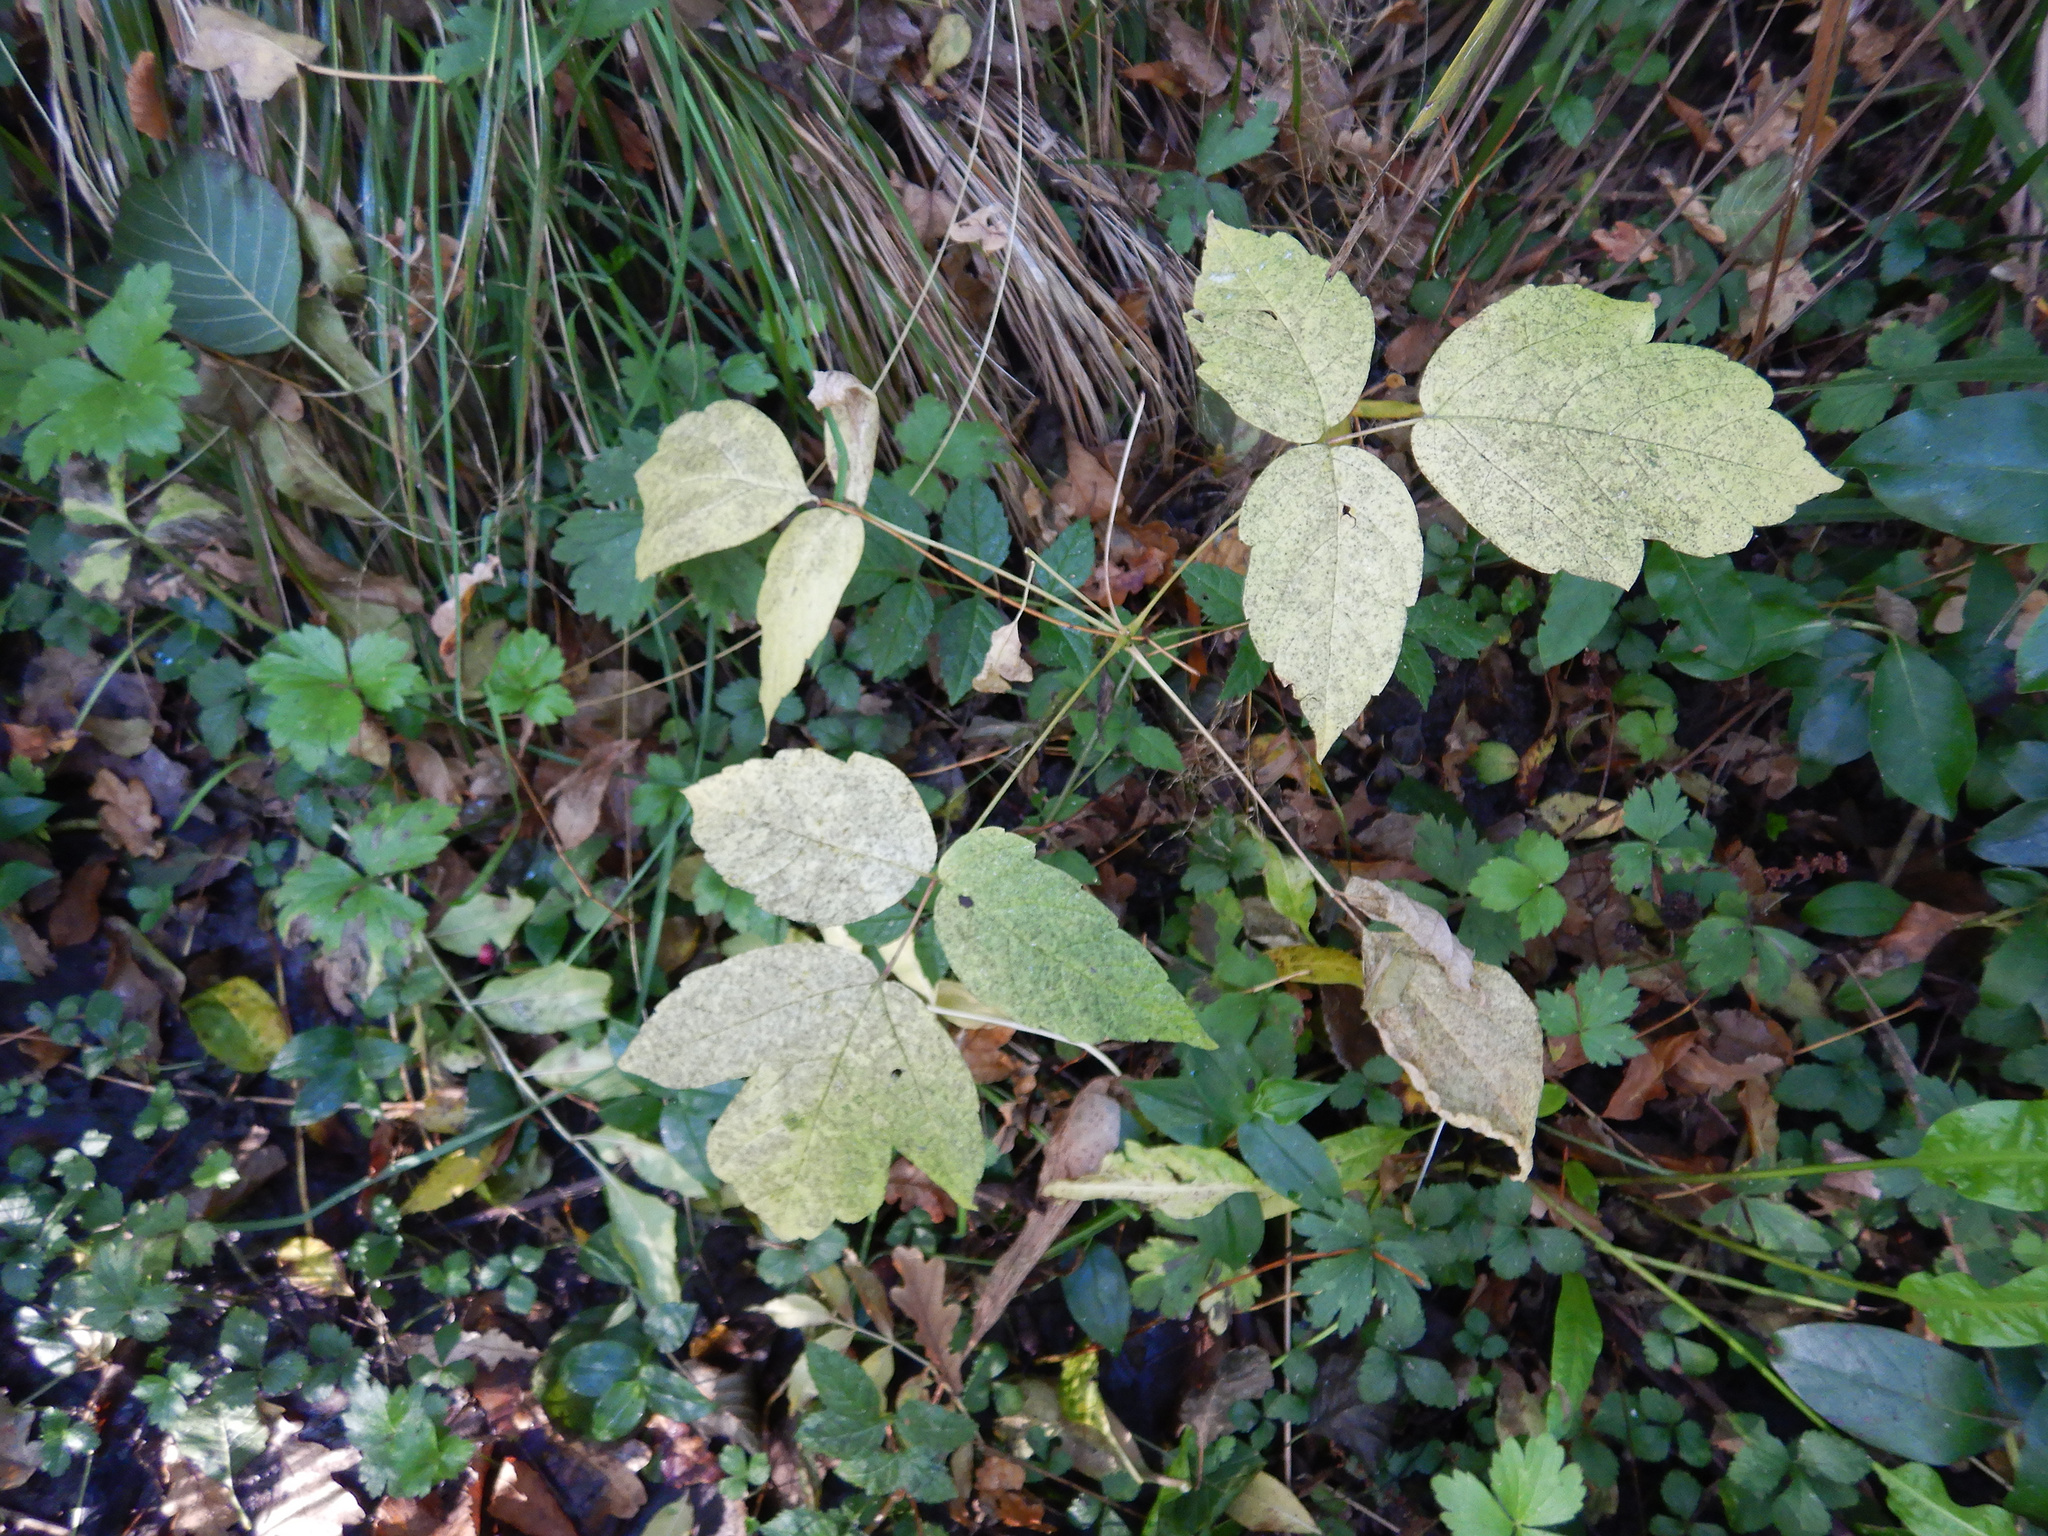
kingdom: Plantae
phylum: Tracheophyta
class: Magnoliopsida
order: Sapindales
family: Sapindaceae
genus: Acer
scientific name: Acer negundo
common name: Ashleaf maple
